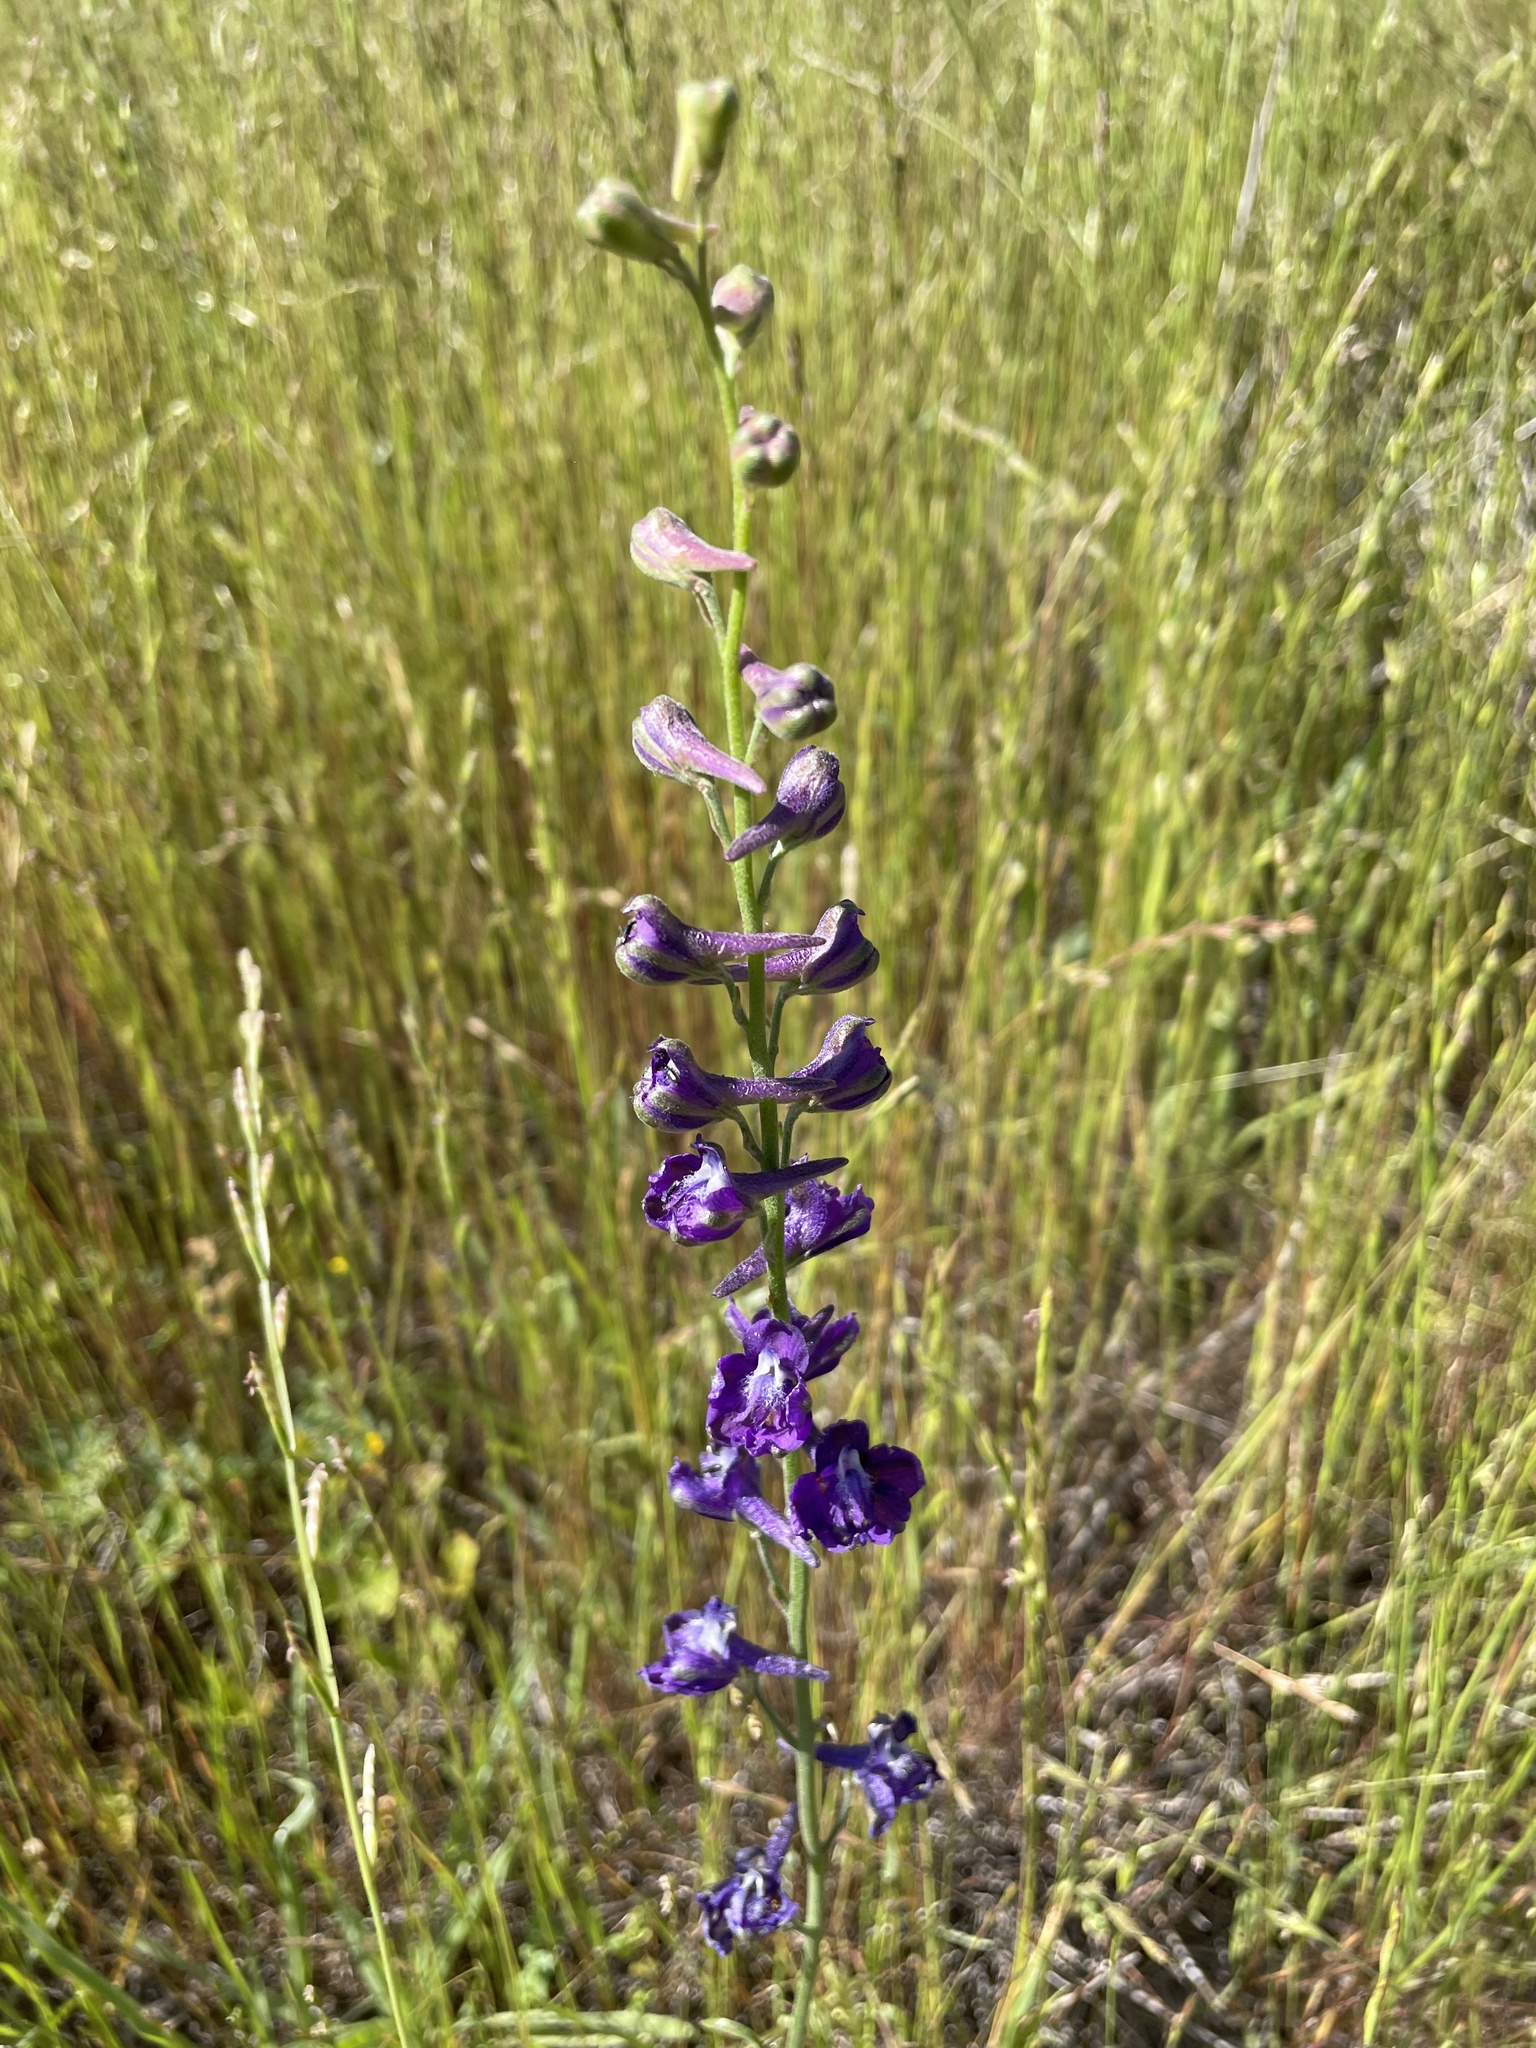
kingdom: Plantae
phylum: Tracheophyta
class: Magnoliopsida
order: Ranunculales
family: Ranunculaceae
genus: Delphinium
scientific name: Delphinium hesperium
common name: Western larkspur
